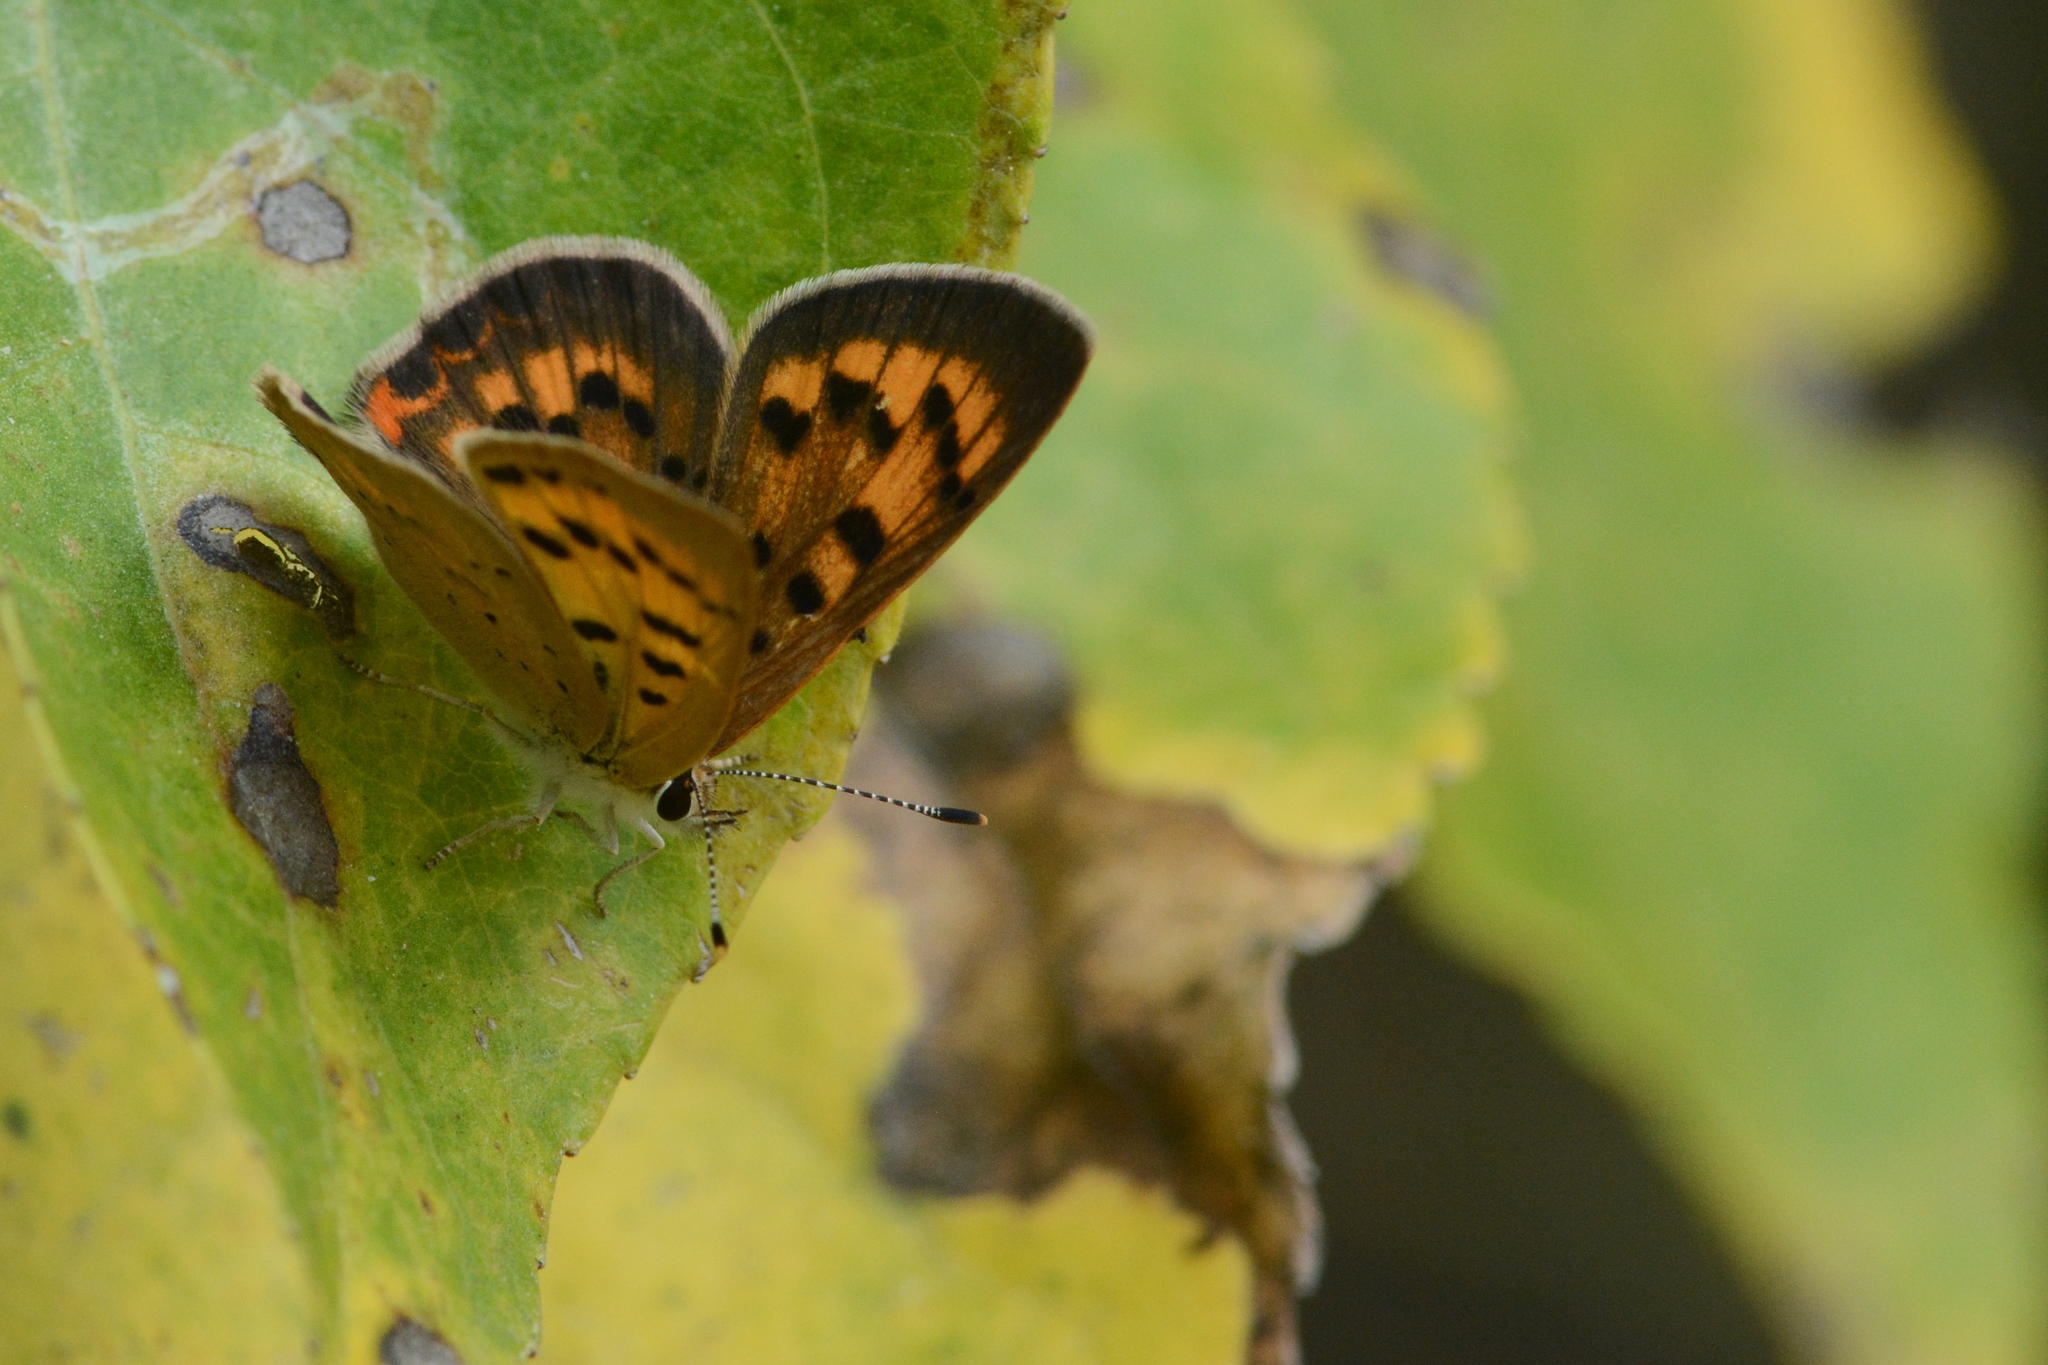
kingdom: Animalia
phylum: Arthropoda
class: Insecta
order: Lepidoptera
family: Lycaenidae
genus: Tharsalea
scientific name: Tharsalea helloides
